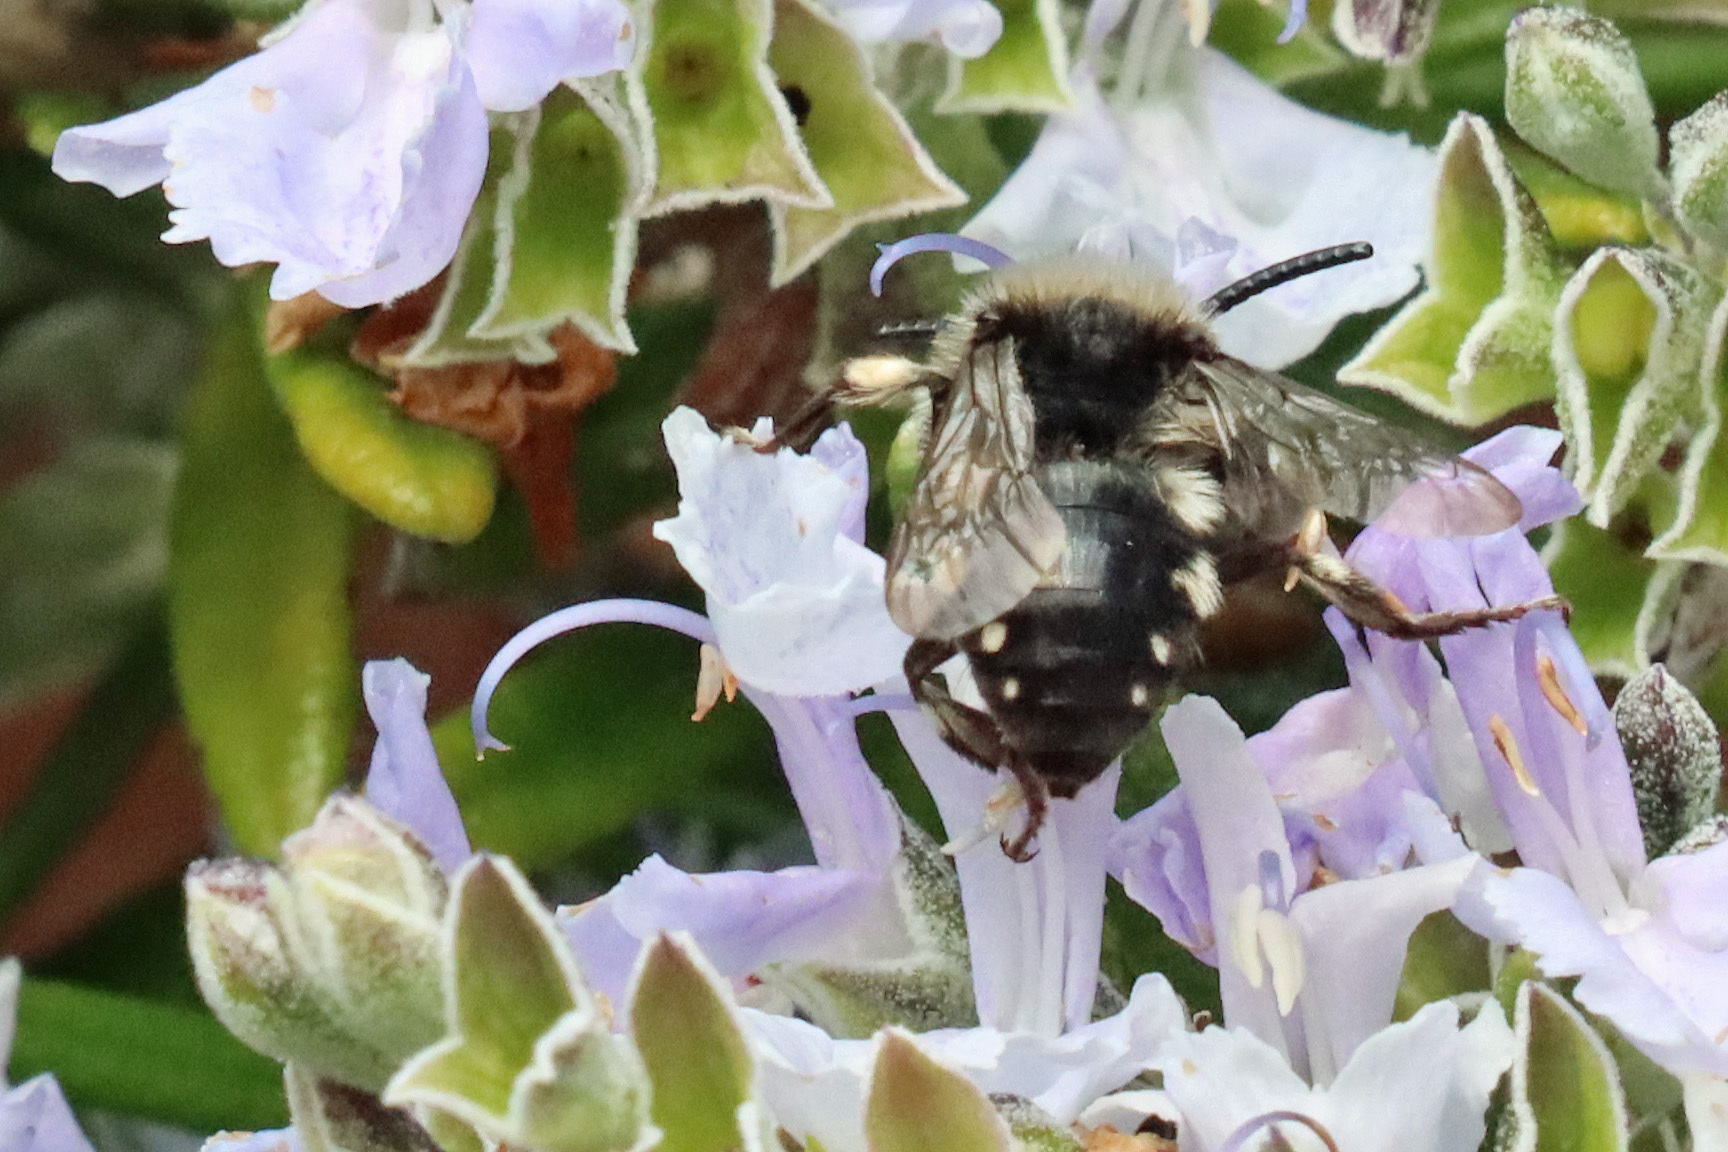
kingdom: Animalia
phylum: Arthropoda
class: Insecta
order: Hymenoptera
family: Apidae
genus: Melecta
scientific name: Melecta albifrons
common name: Common mourning bee
